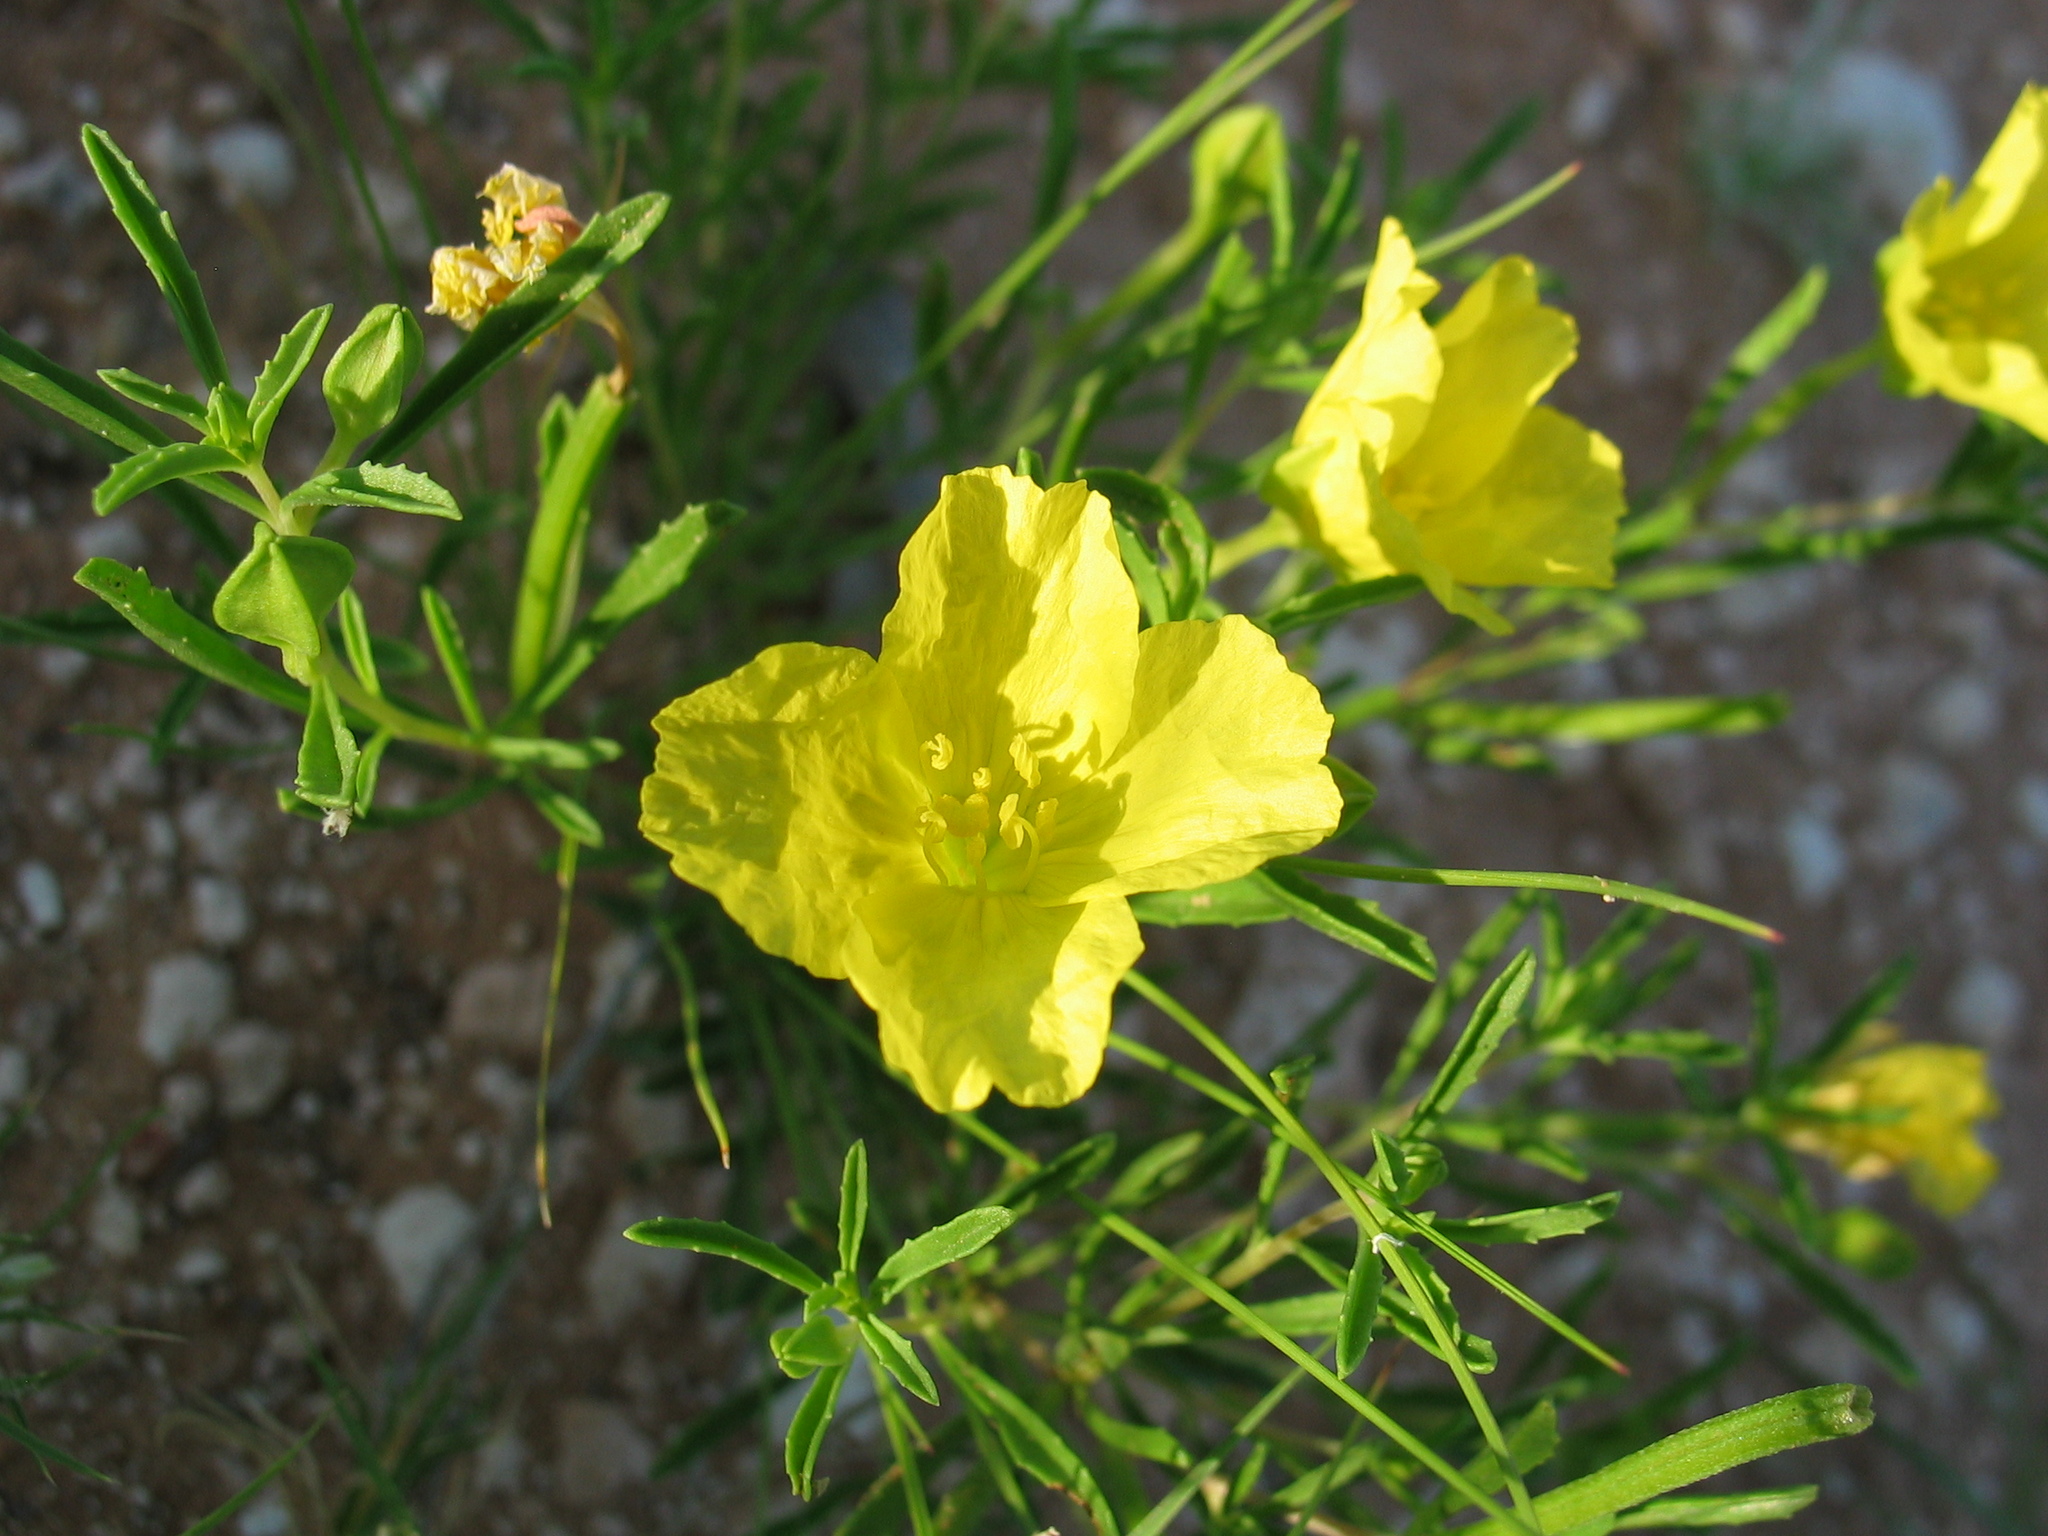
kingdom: Plantae
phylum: Tracheophyta
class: Magnoliopsida
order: Myrtales
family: Onagraceae
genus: Oenothera
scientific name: Oenothera serrulata
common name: Half-shrub calylophus
